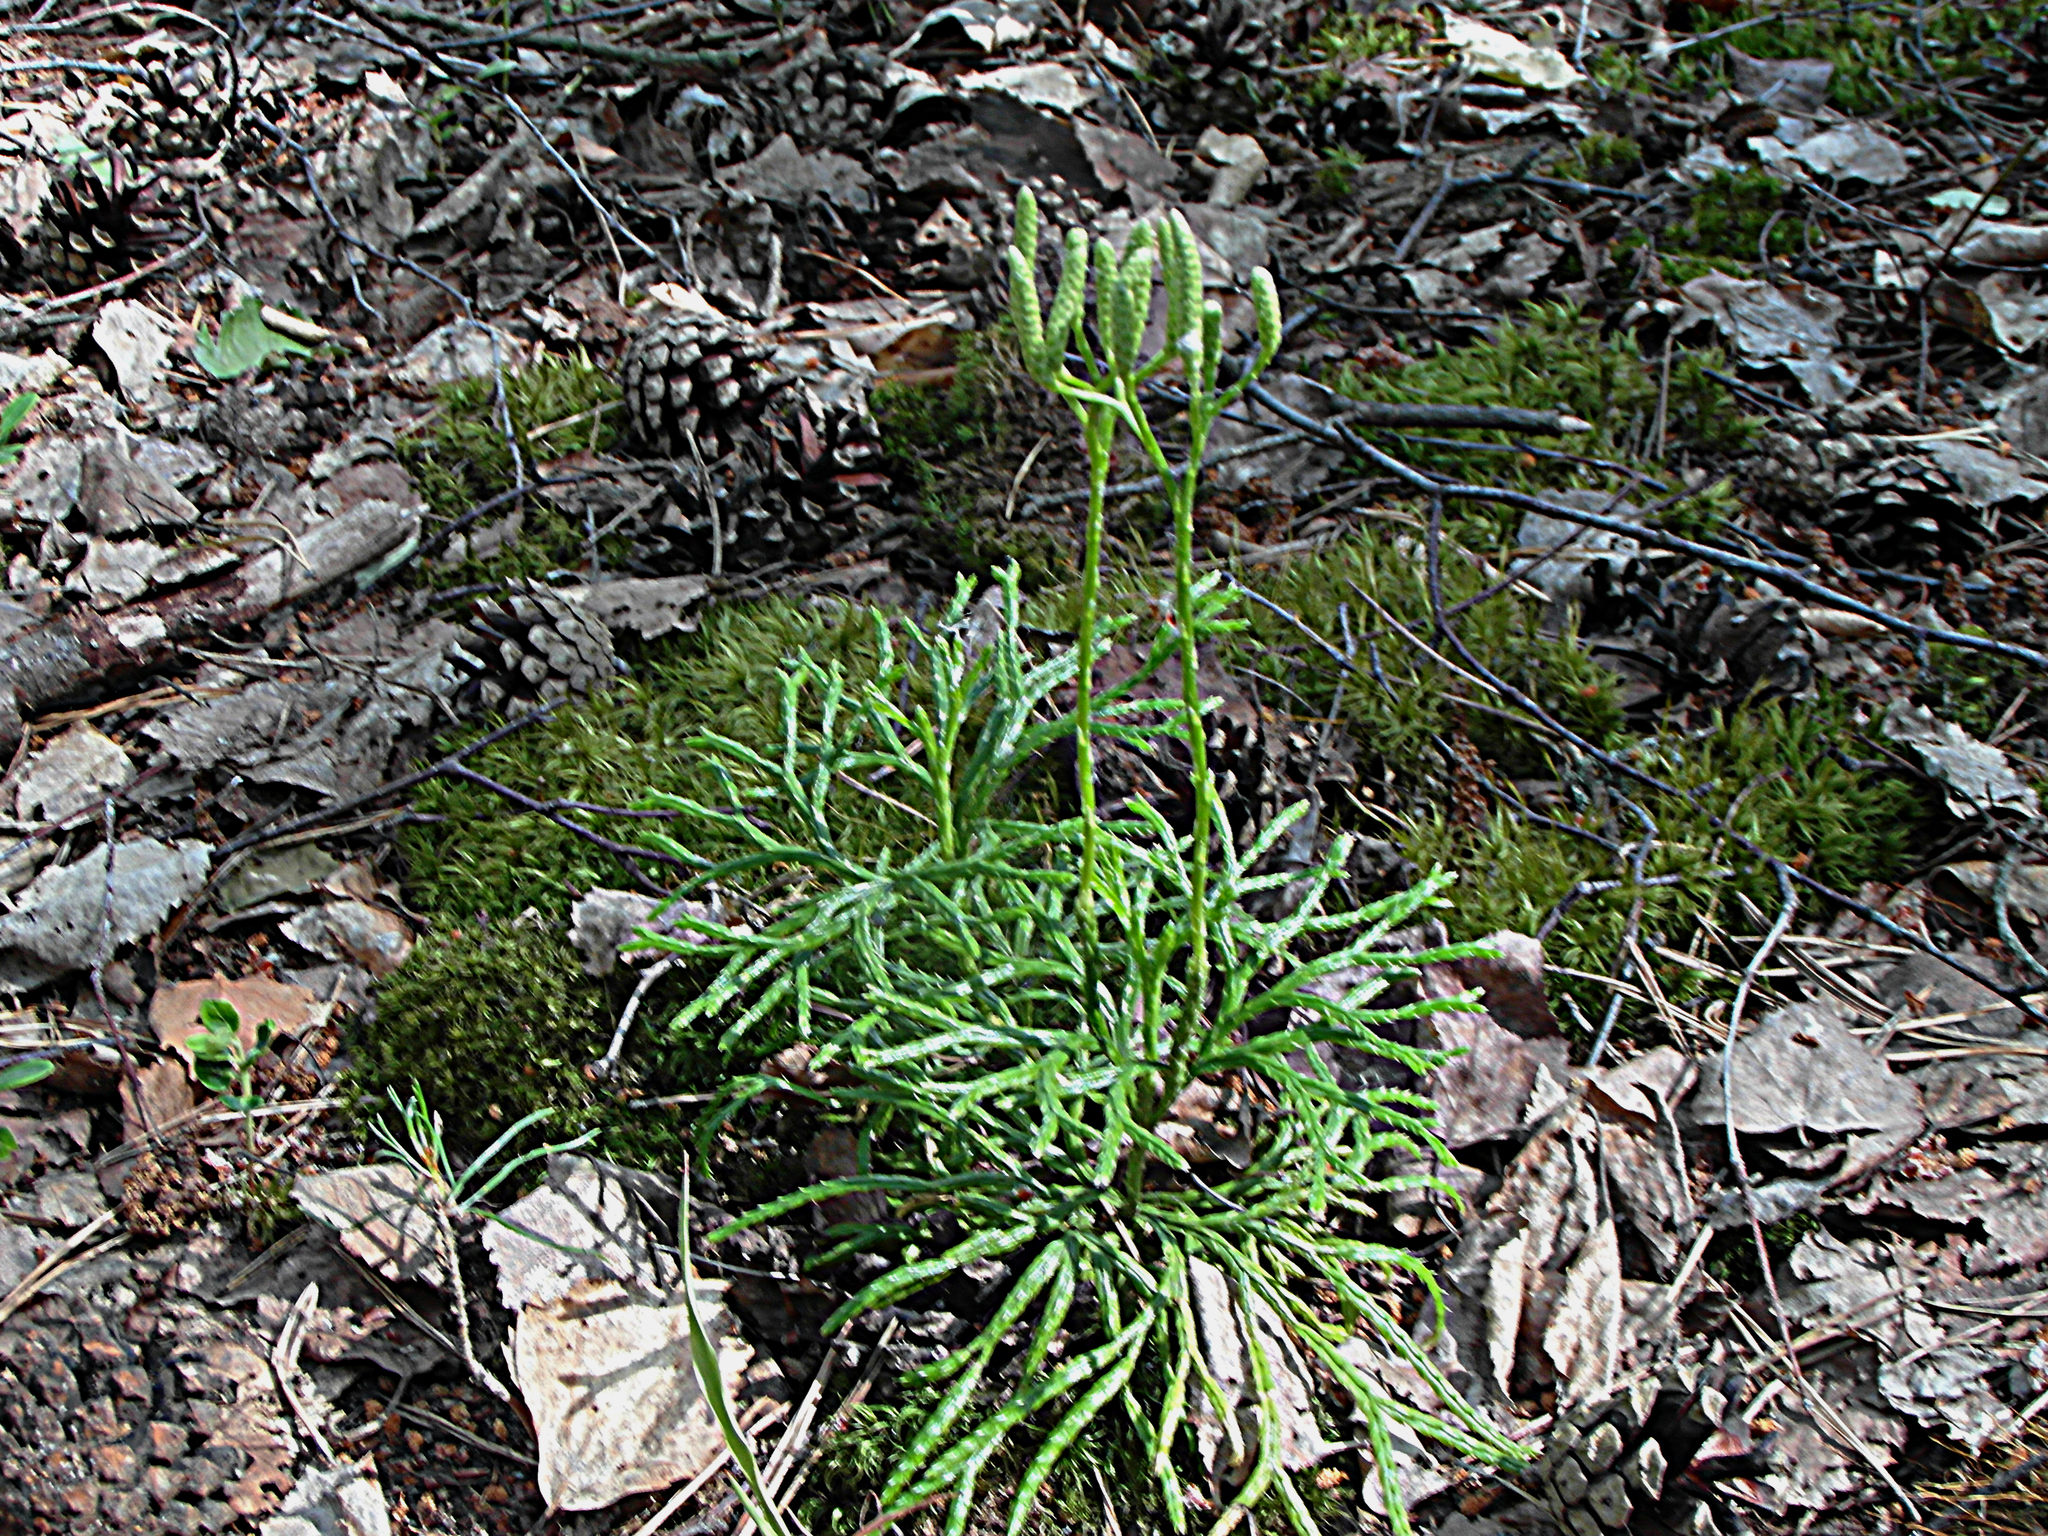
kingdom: Plantae
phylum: Tracheophyta
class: Lycopodiopsida
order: Lycopodiales
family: Lycopodiaceae
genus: Diphasiastrum
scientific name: Diphasiastrum complanatum
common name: Northern running-pine
